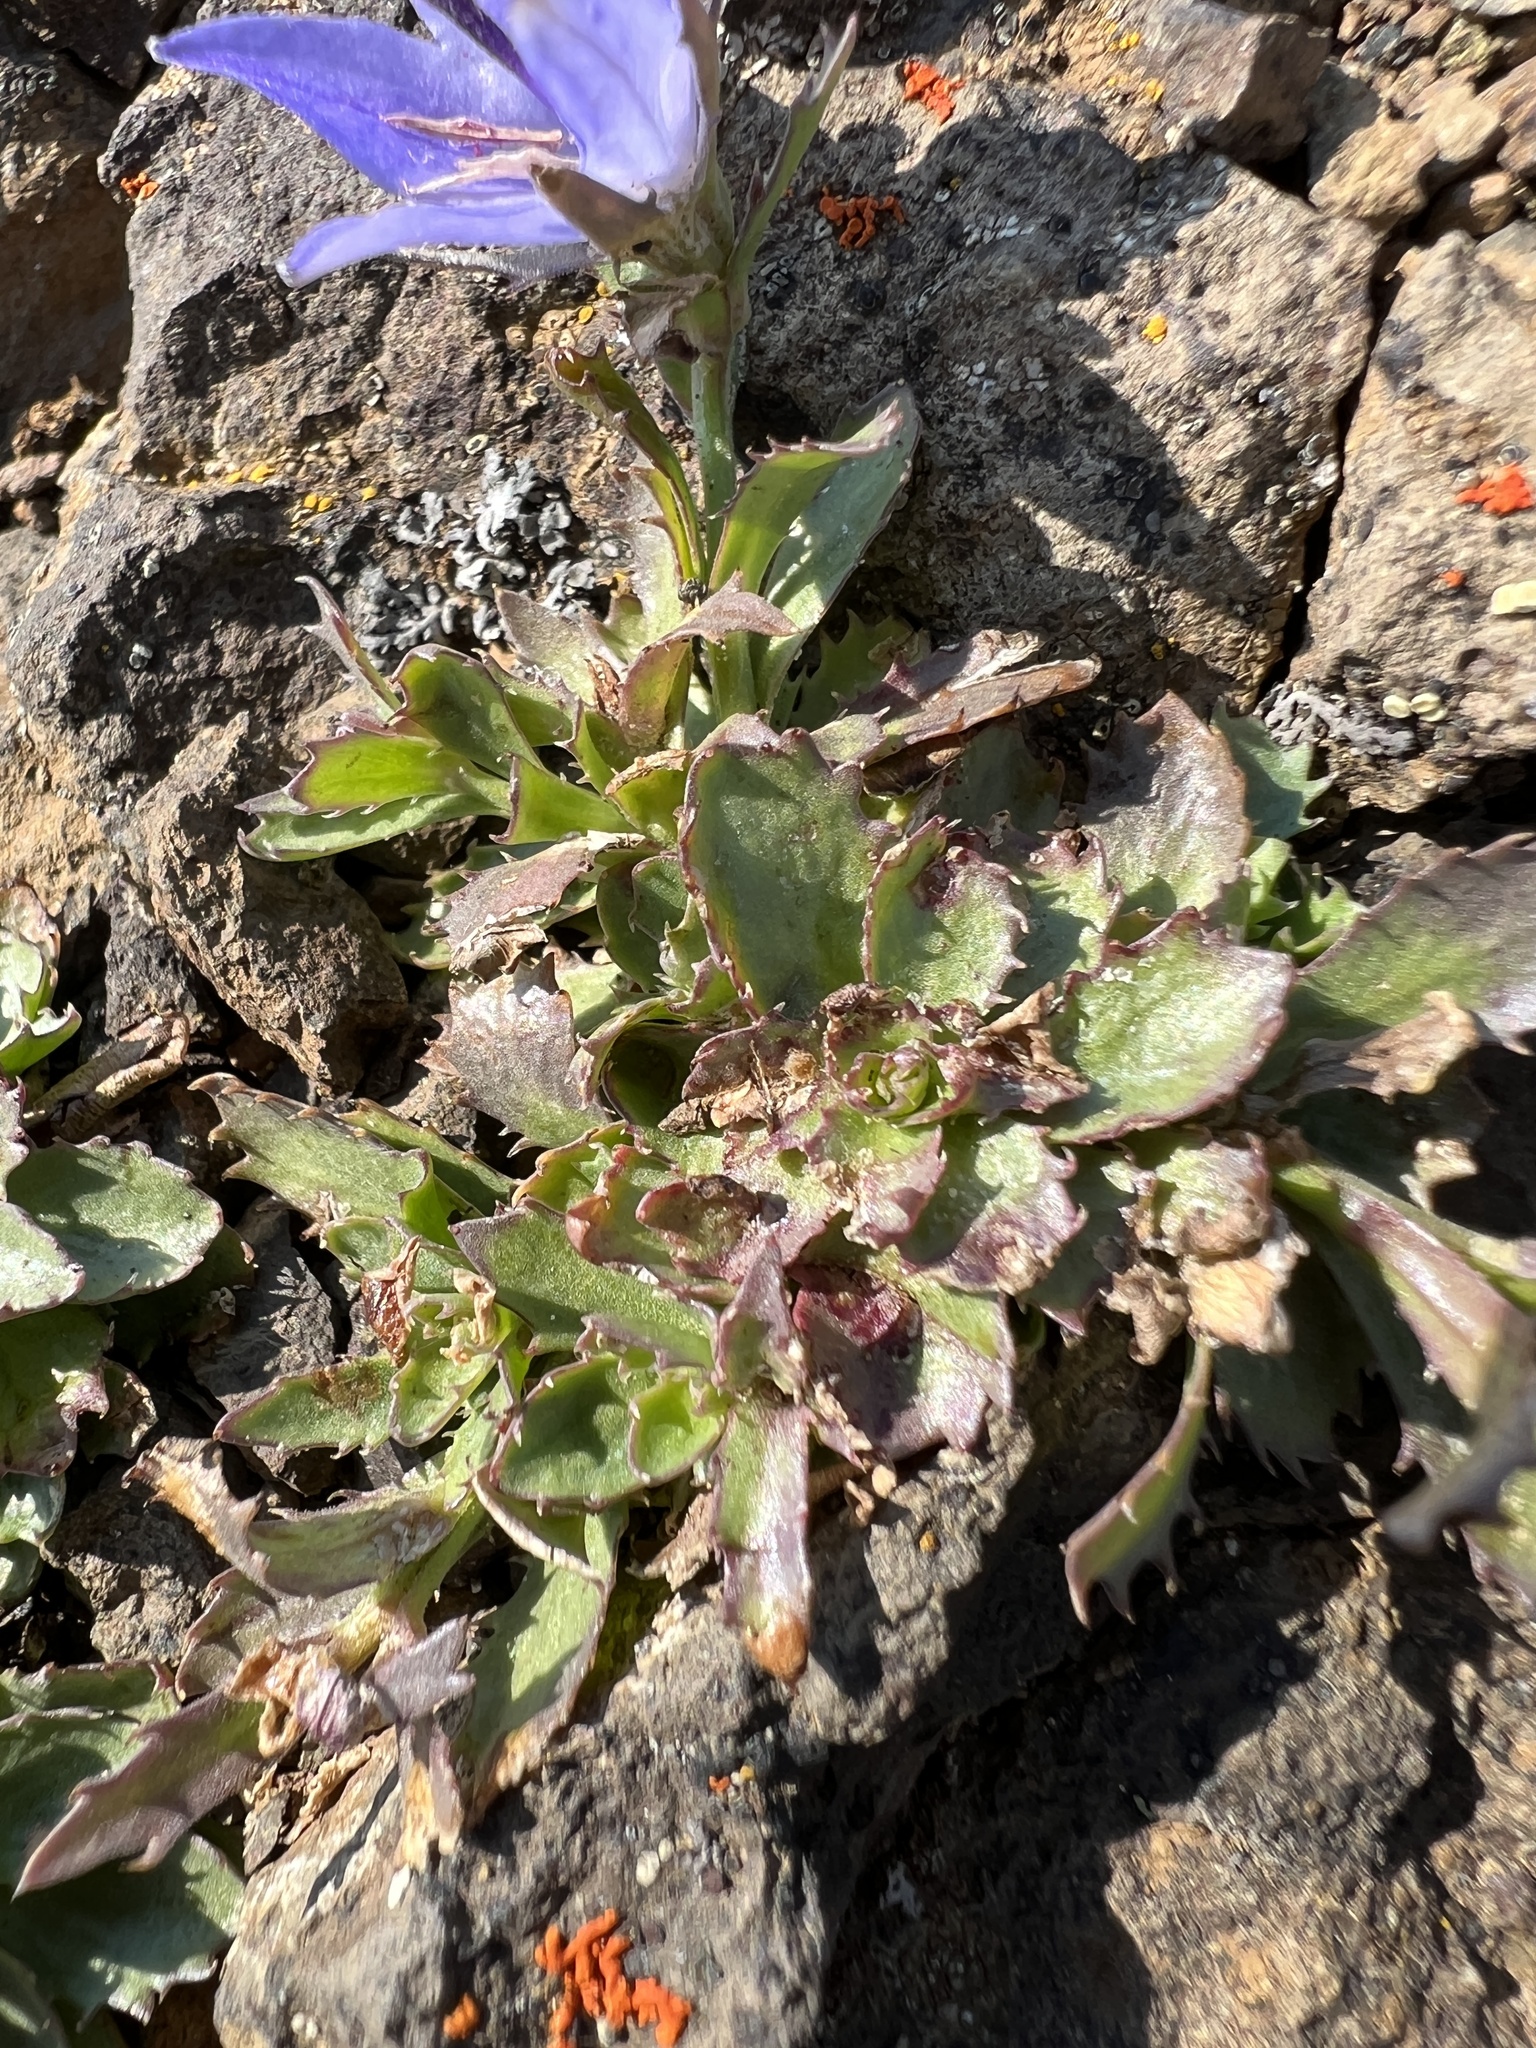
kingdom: Plantae
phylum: Tracheophyta
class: Magnoliopsida
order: Asterales
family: Campanulaceae
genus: Campanula
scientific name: Campanula piperi
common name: Olympic bellflower
